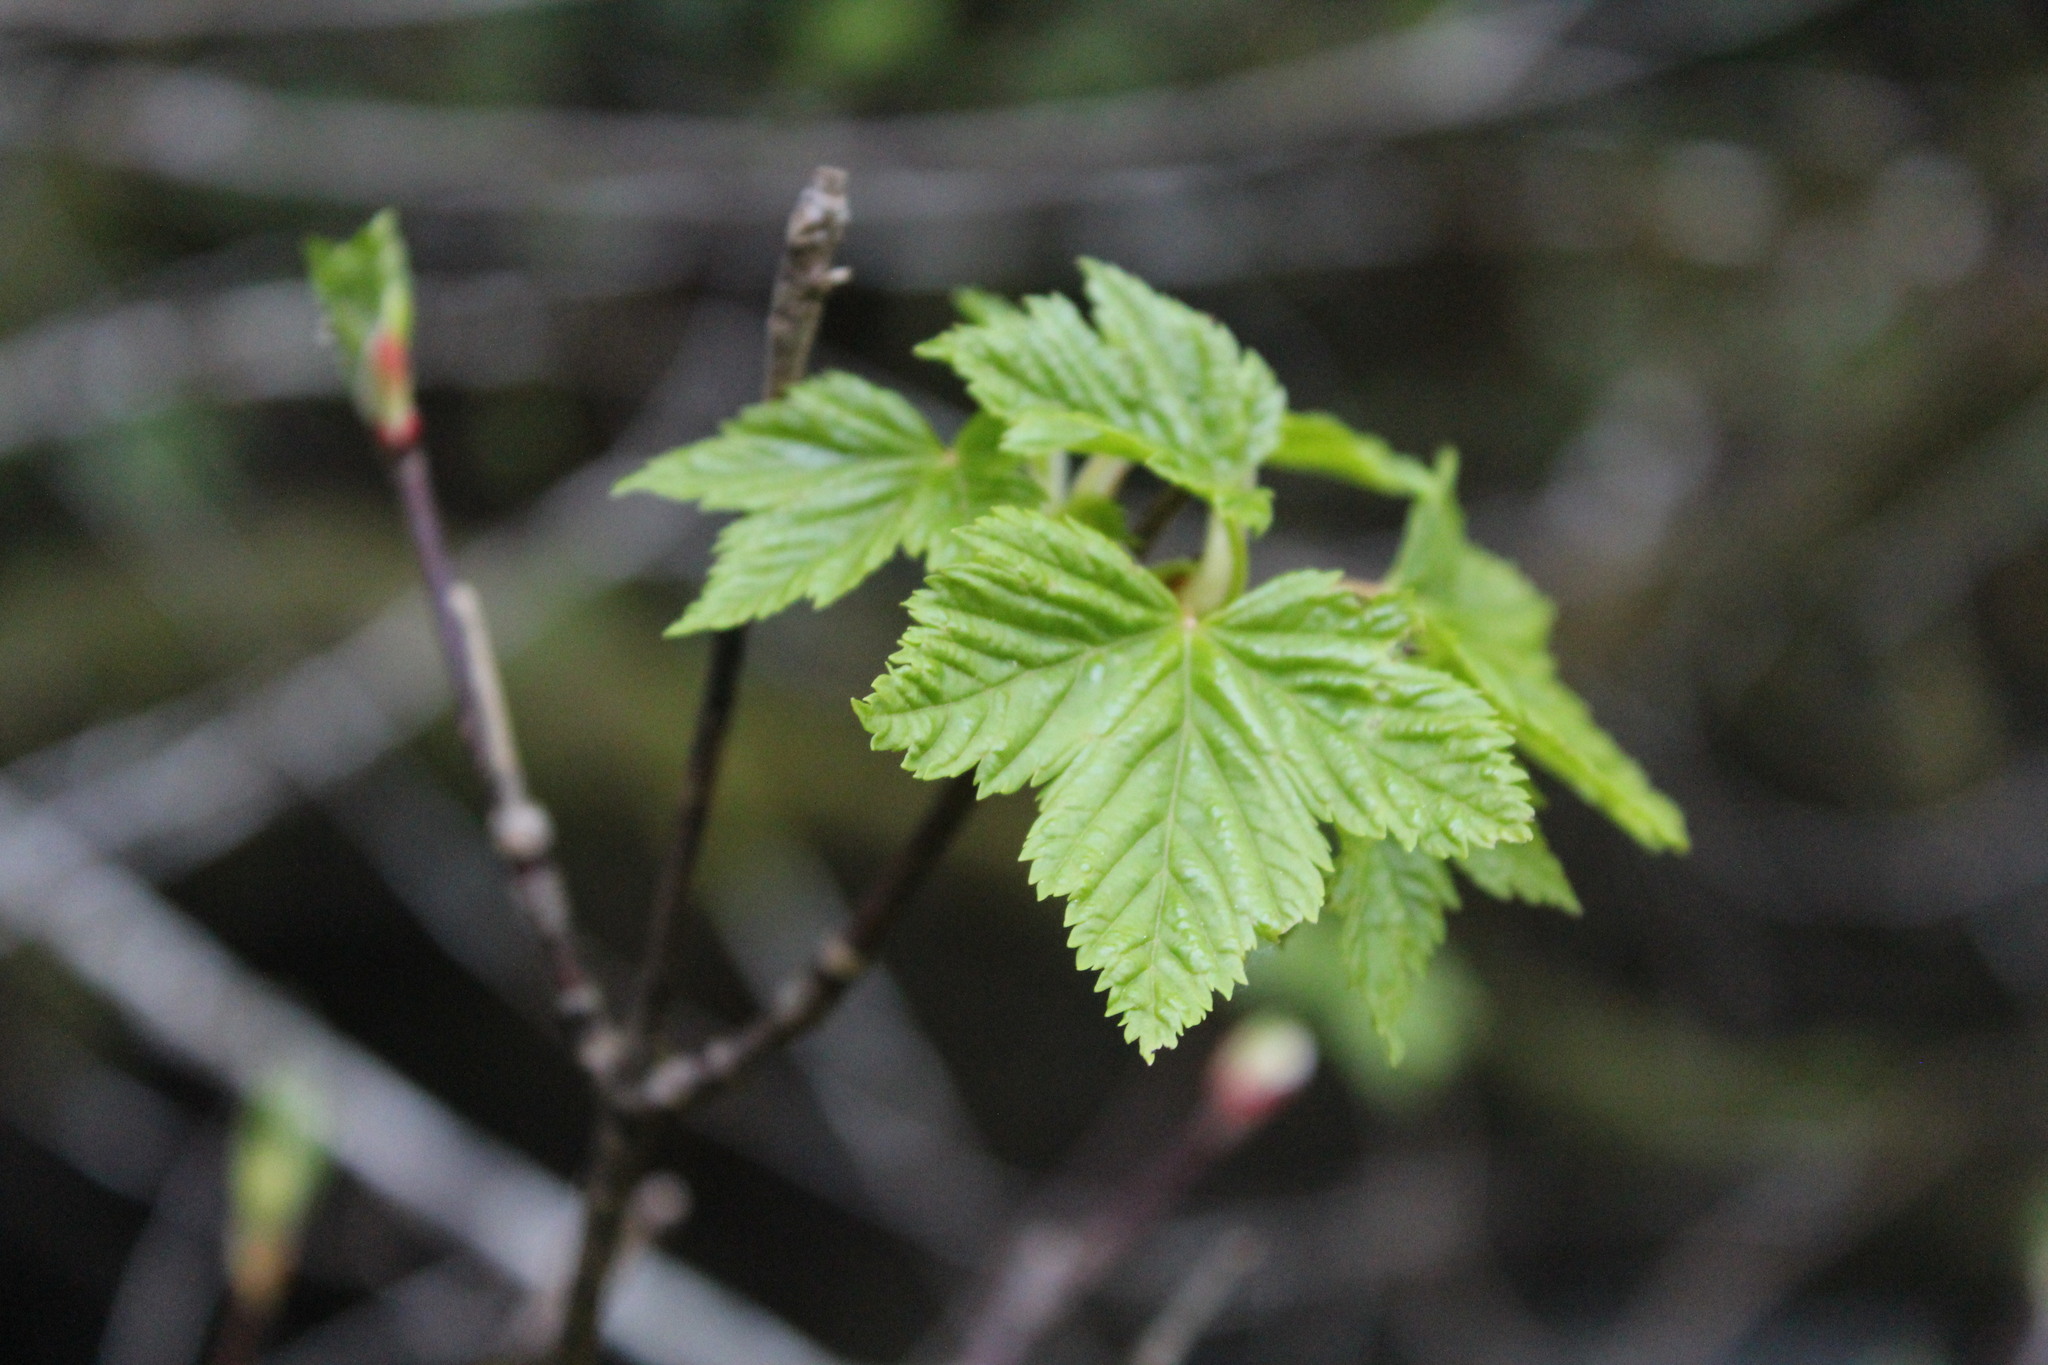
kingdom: Plantae
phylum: Tracheophyta
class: Magnoliopsida
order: Sapindales
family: Sapindaceae
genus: Acer
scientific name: Acer glabrum
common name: Rocky mountain maple
